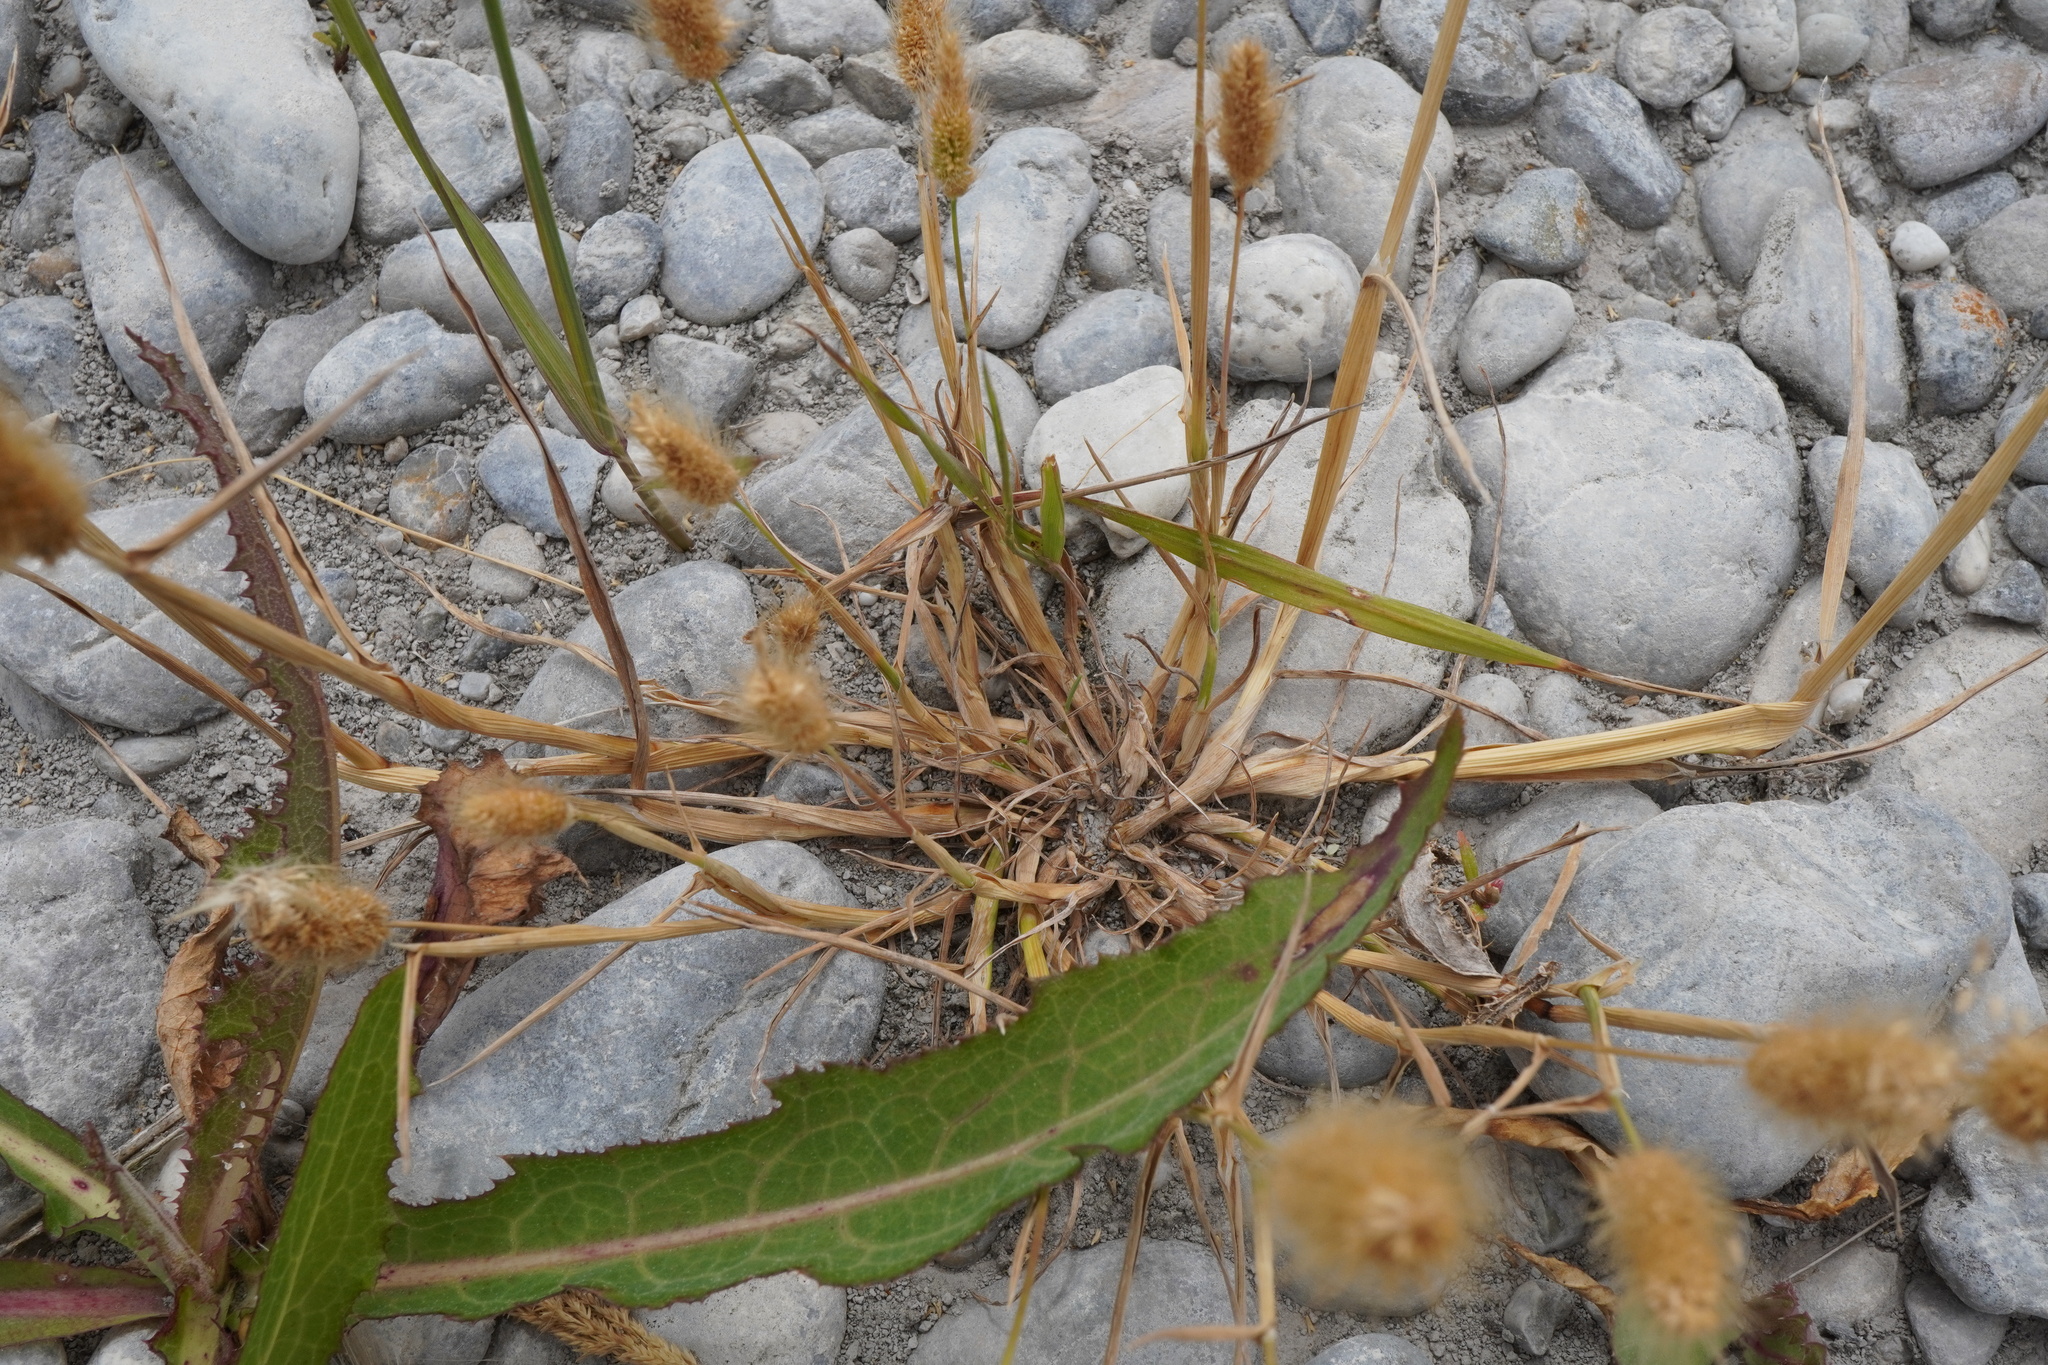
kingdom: Plantae
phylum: Tracheophyta
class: Liliopsida
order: Poales
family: Poaceae
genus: Polypogon
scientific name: Polypogon monspeliensis
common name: Annual rabbitsfoot grass
